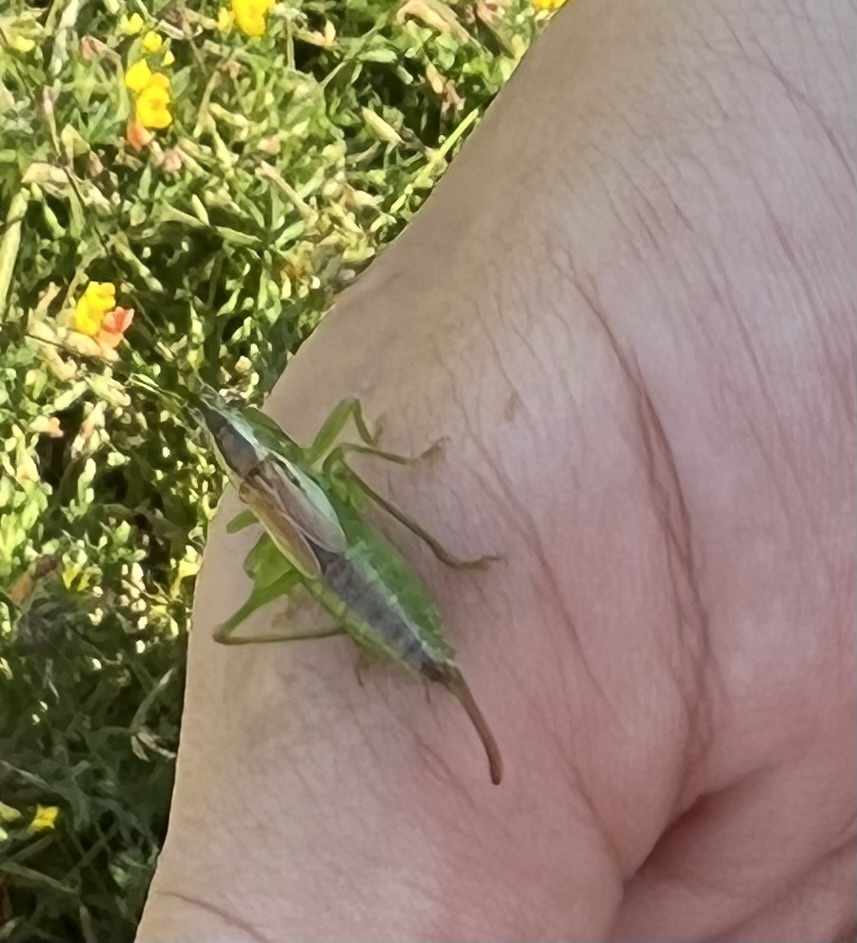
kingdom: Animalia
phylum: Arthropoda
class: Insecta
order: Orthoptera
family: Tettigoniidae
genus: Conocephalus
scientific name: Conocephalus dorsalis
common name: Short-winged conehead
